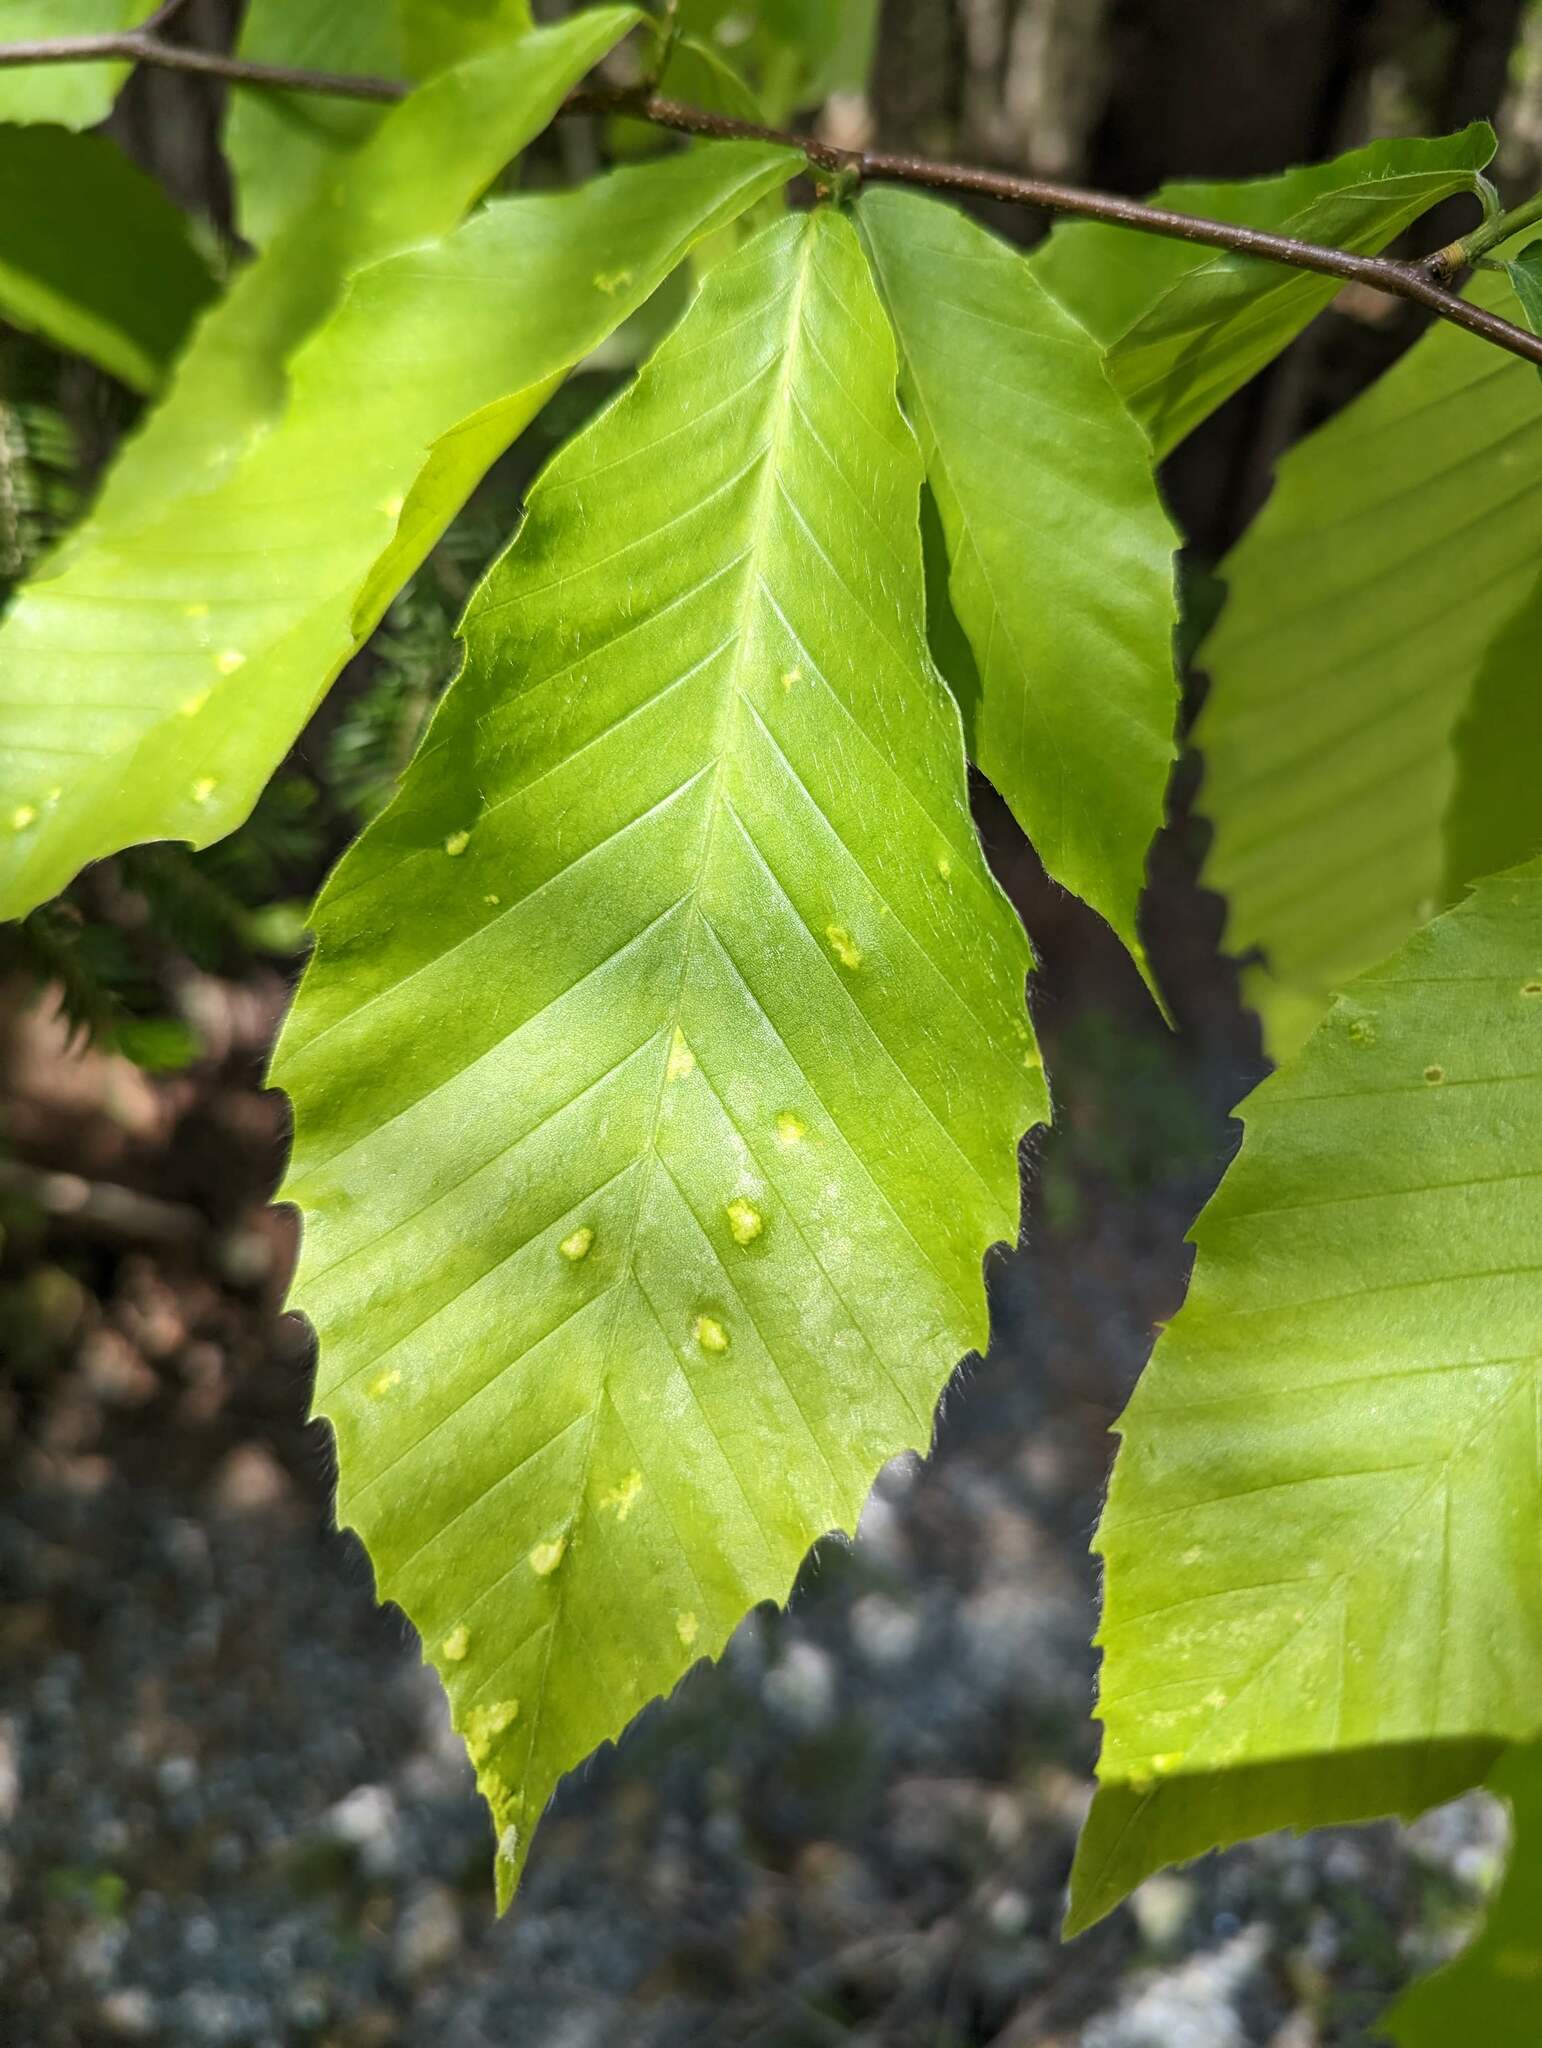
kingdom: Plantae
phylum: Tracheophyta
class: Magnoliopsida
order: Fagales
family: Fagaceae
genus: Fagus
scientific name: Fagus grandifolia
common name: American beech
